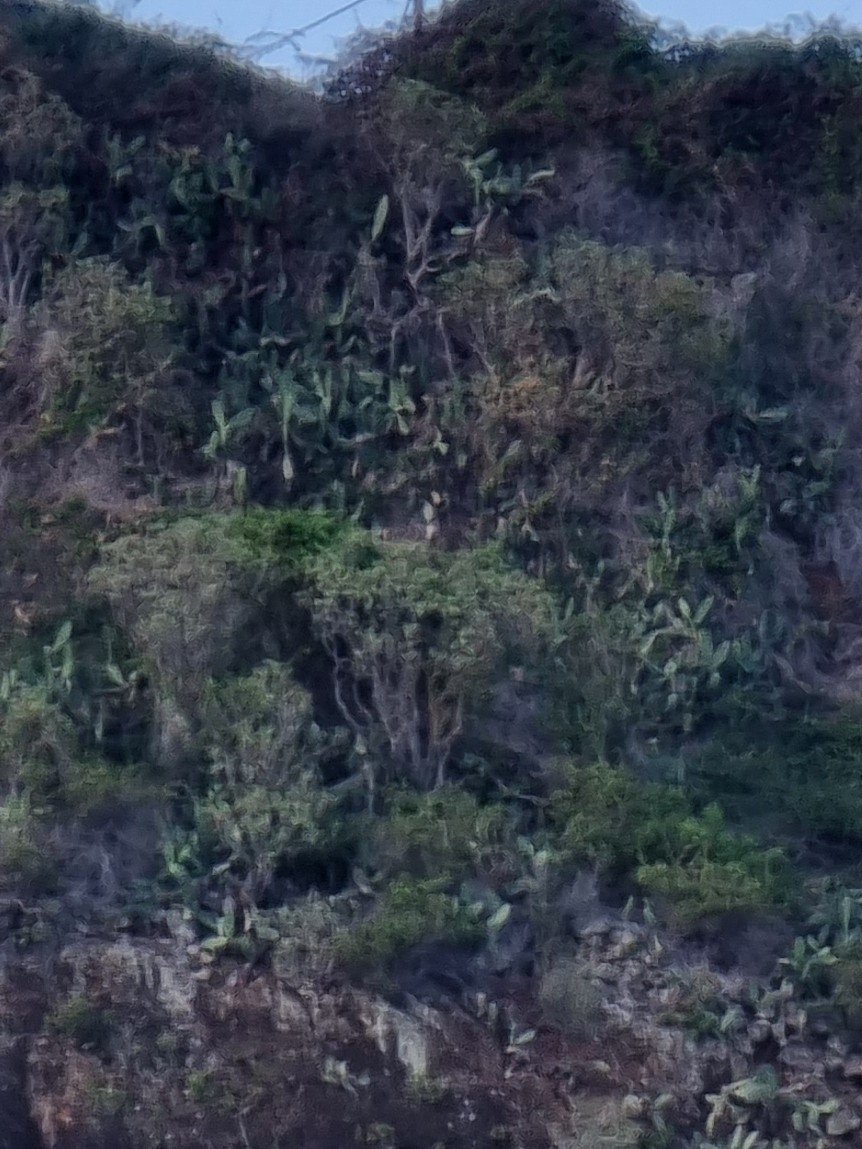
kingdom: Plantae
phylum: Tracheophyta
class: Magnoliopsida
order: Malpighiales
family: Euphorbiaceae
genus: Euphorbia
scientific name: Euphorbia piscatoria
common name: Fish-stunning spurge
